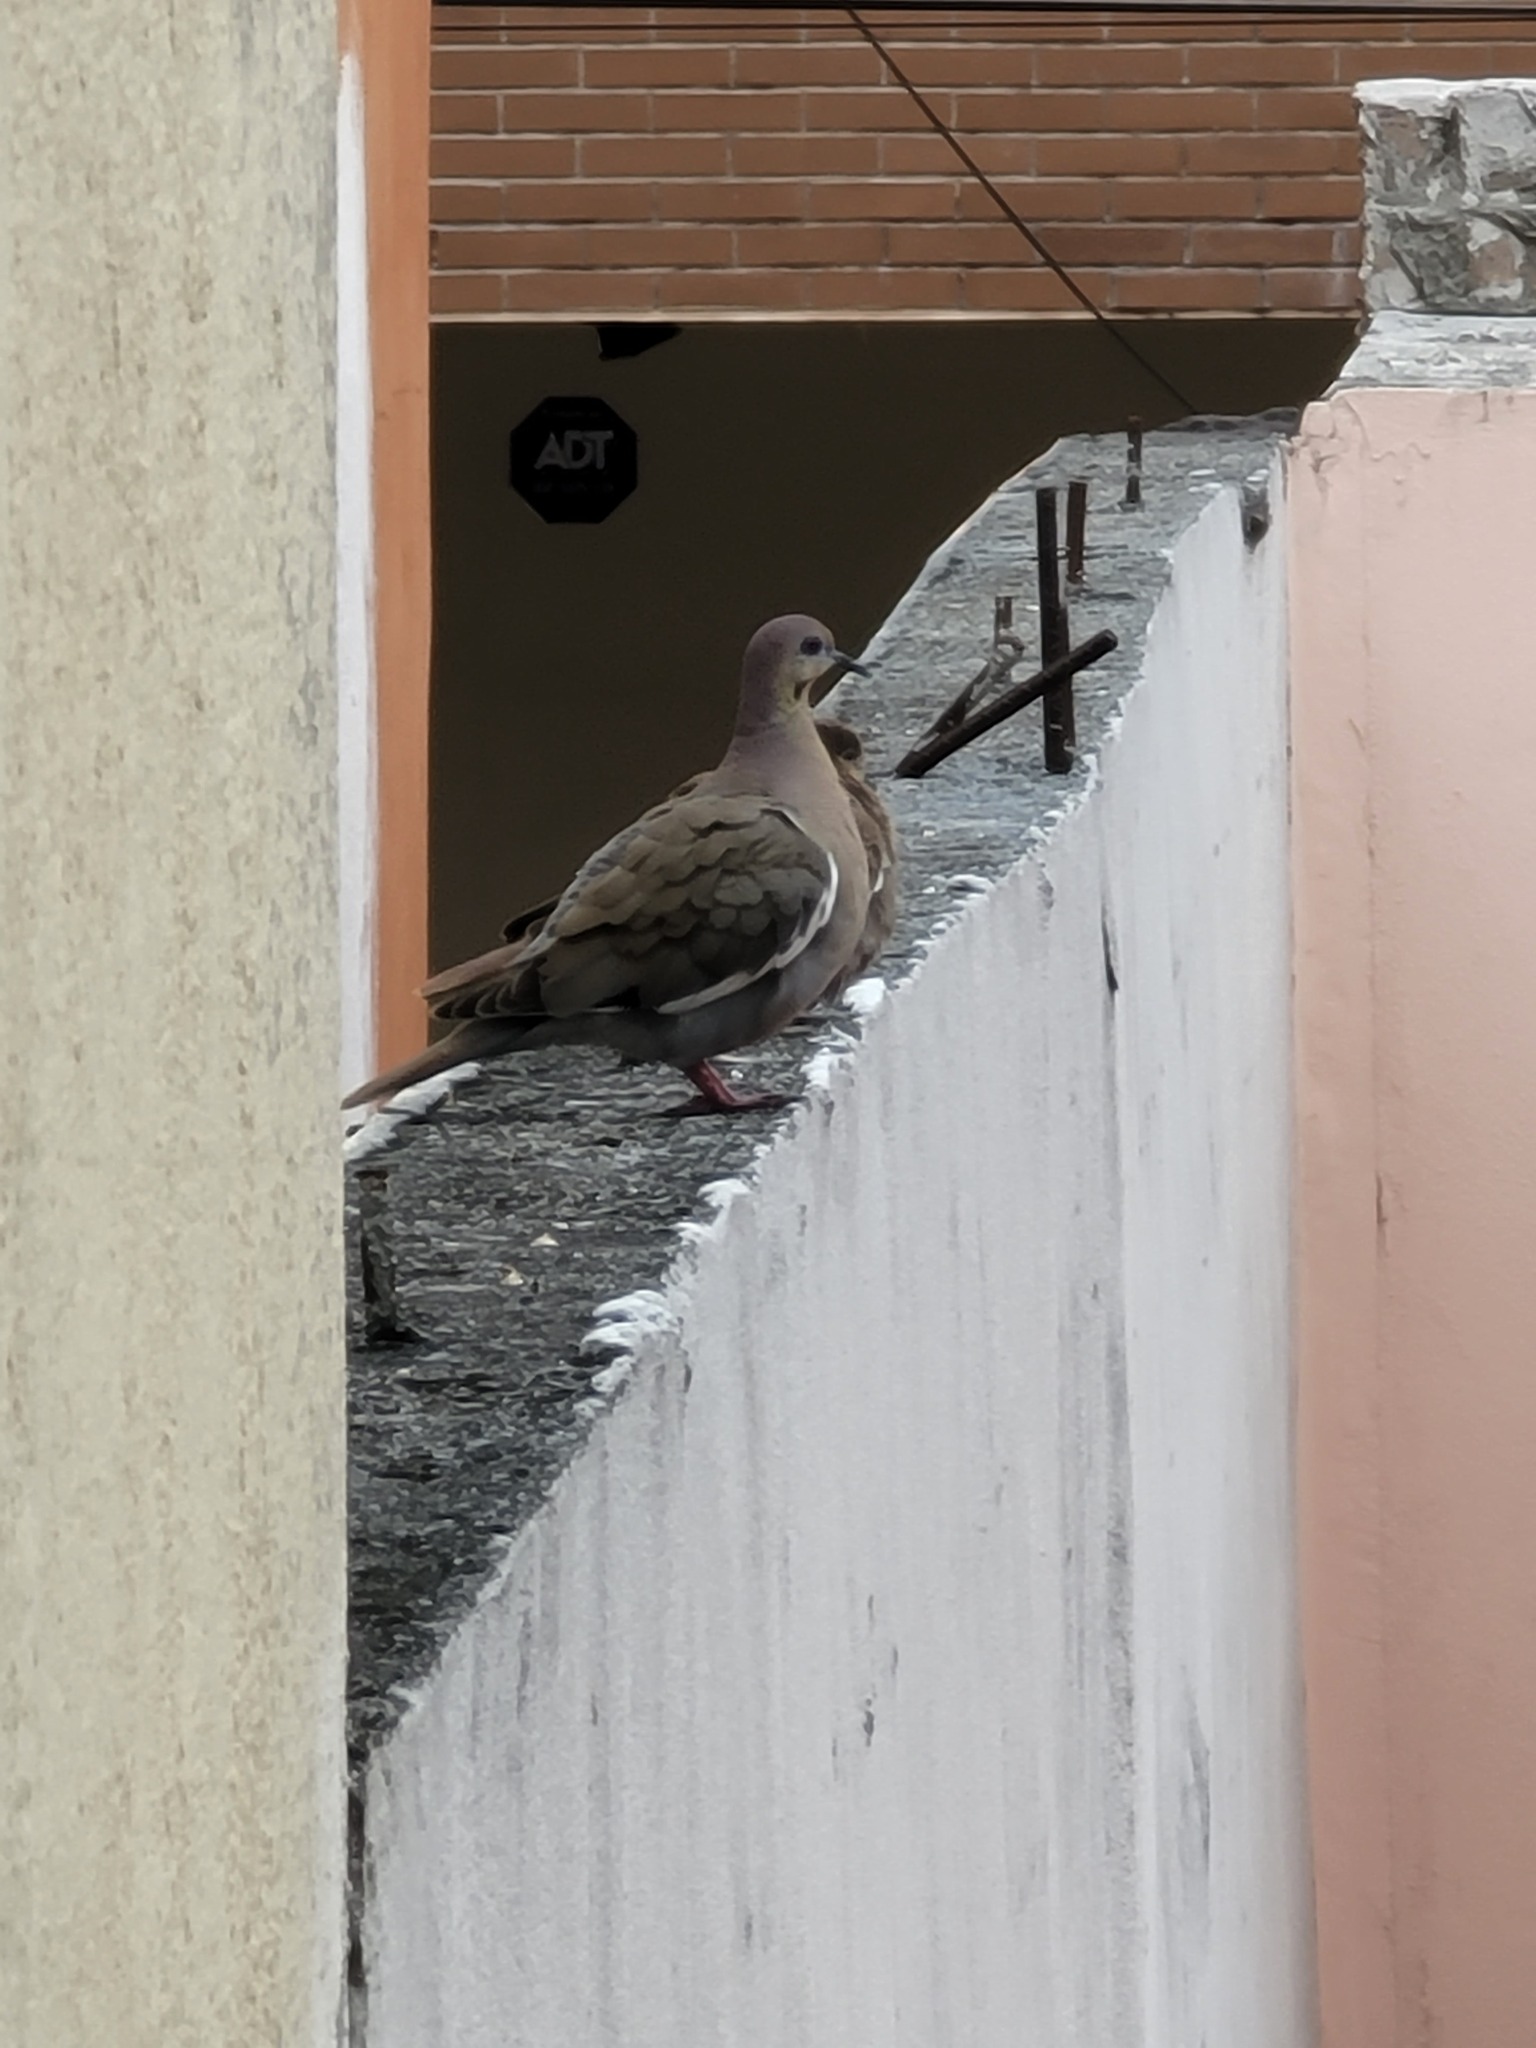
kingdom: Animalia
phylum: Chordata
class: Aves
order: Columbiformes
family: Columbidae
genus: Zenaida
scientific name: Zenaida asiatica
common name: White-winged dove
